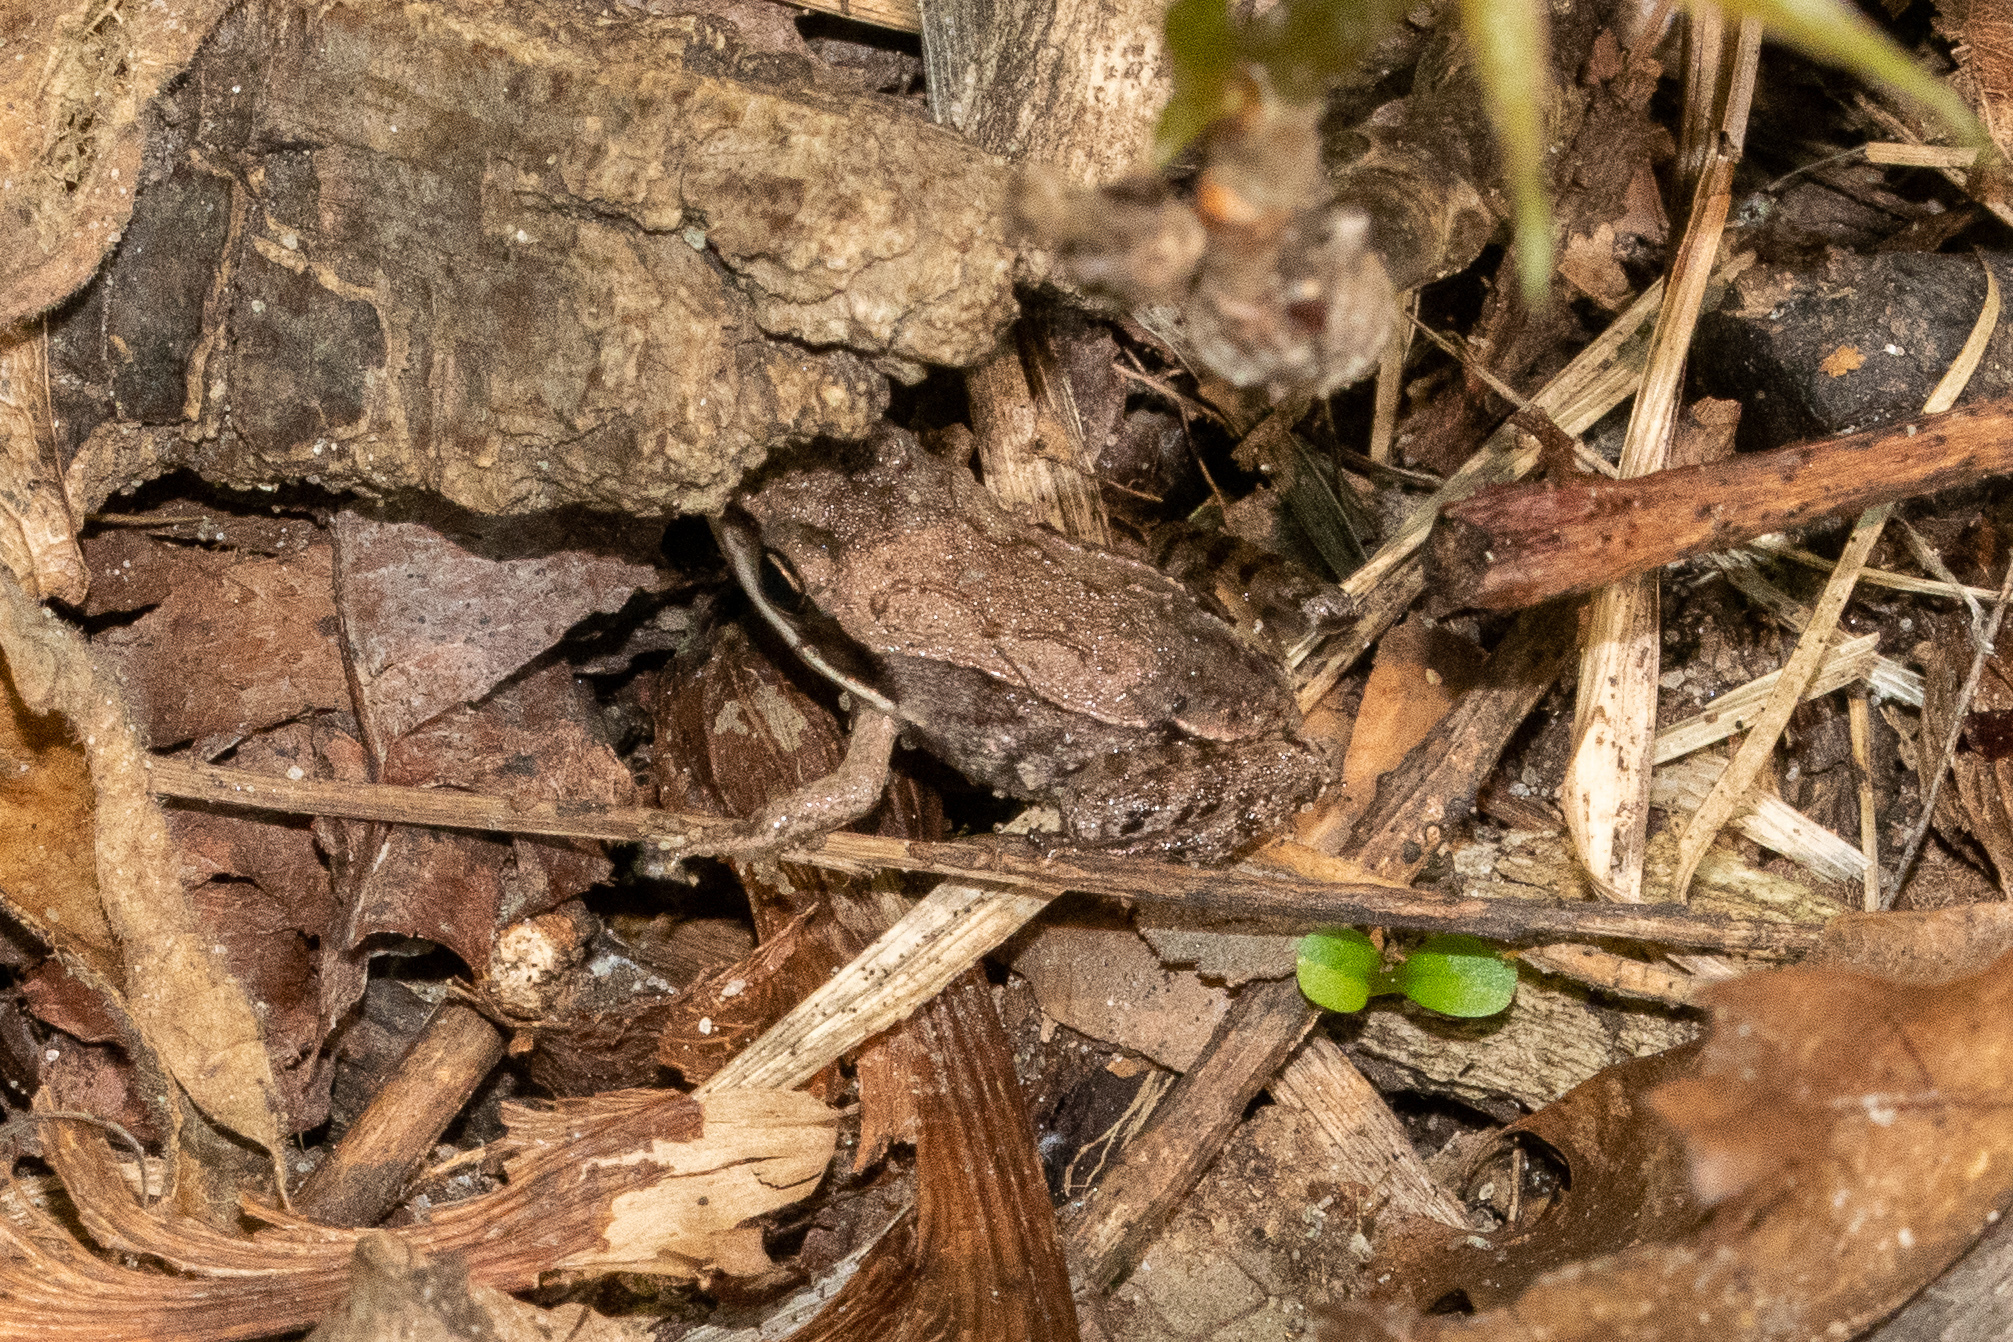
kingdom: Animalia
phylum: Chordata
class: Amphibia
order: Anura
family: Ranidae
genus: Lithobates
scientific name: Lithobates sylvaticus
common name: Wood frog
